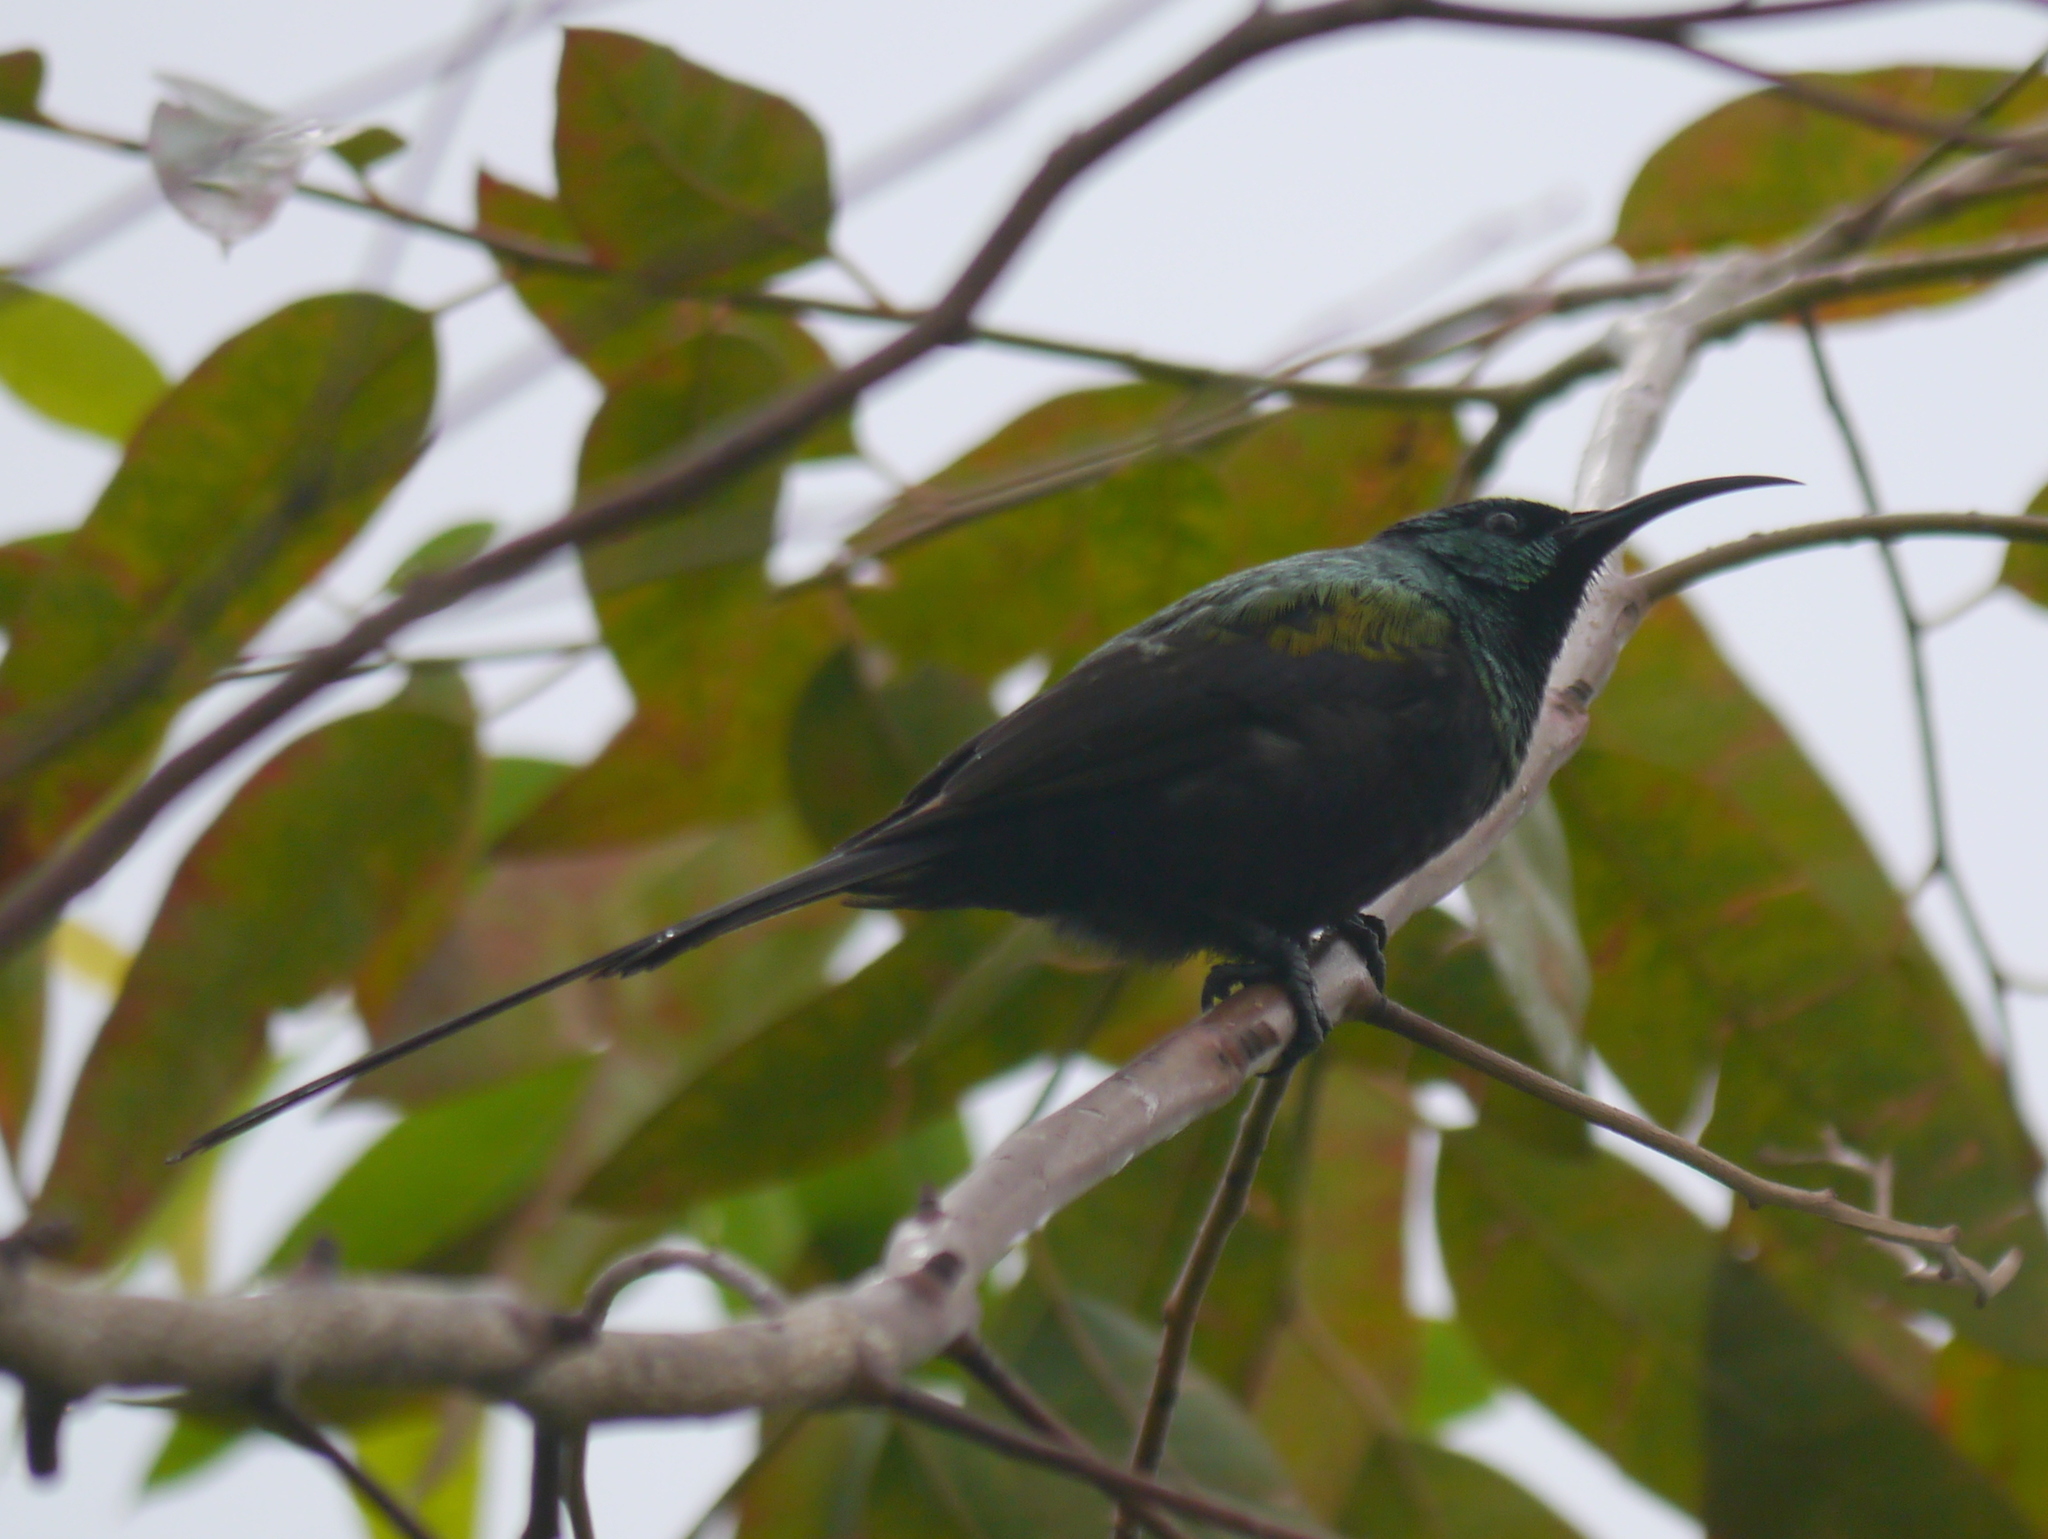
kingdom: Animalia
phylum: Chordata
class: Aves
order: Passeriformes
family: Nectariniidae
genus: Nectarinia
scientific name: Nectarinia kilimensis
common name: Bronzy sunbird
